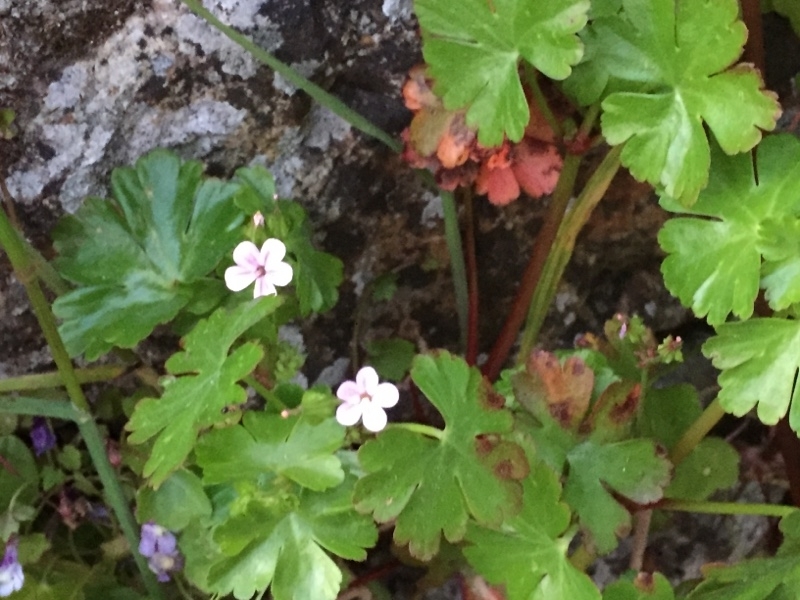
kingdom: Plantae
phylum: Tracheophyta
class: Magnoliopsida
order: Geraniales
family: Geraniaceae
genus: Geranium
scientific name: Geranium lucidum
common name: Shining crane's-bill
